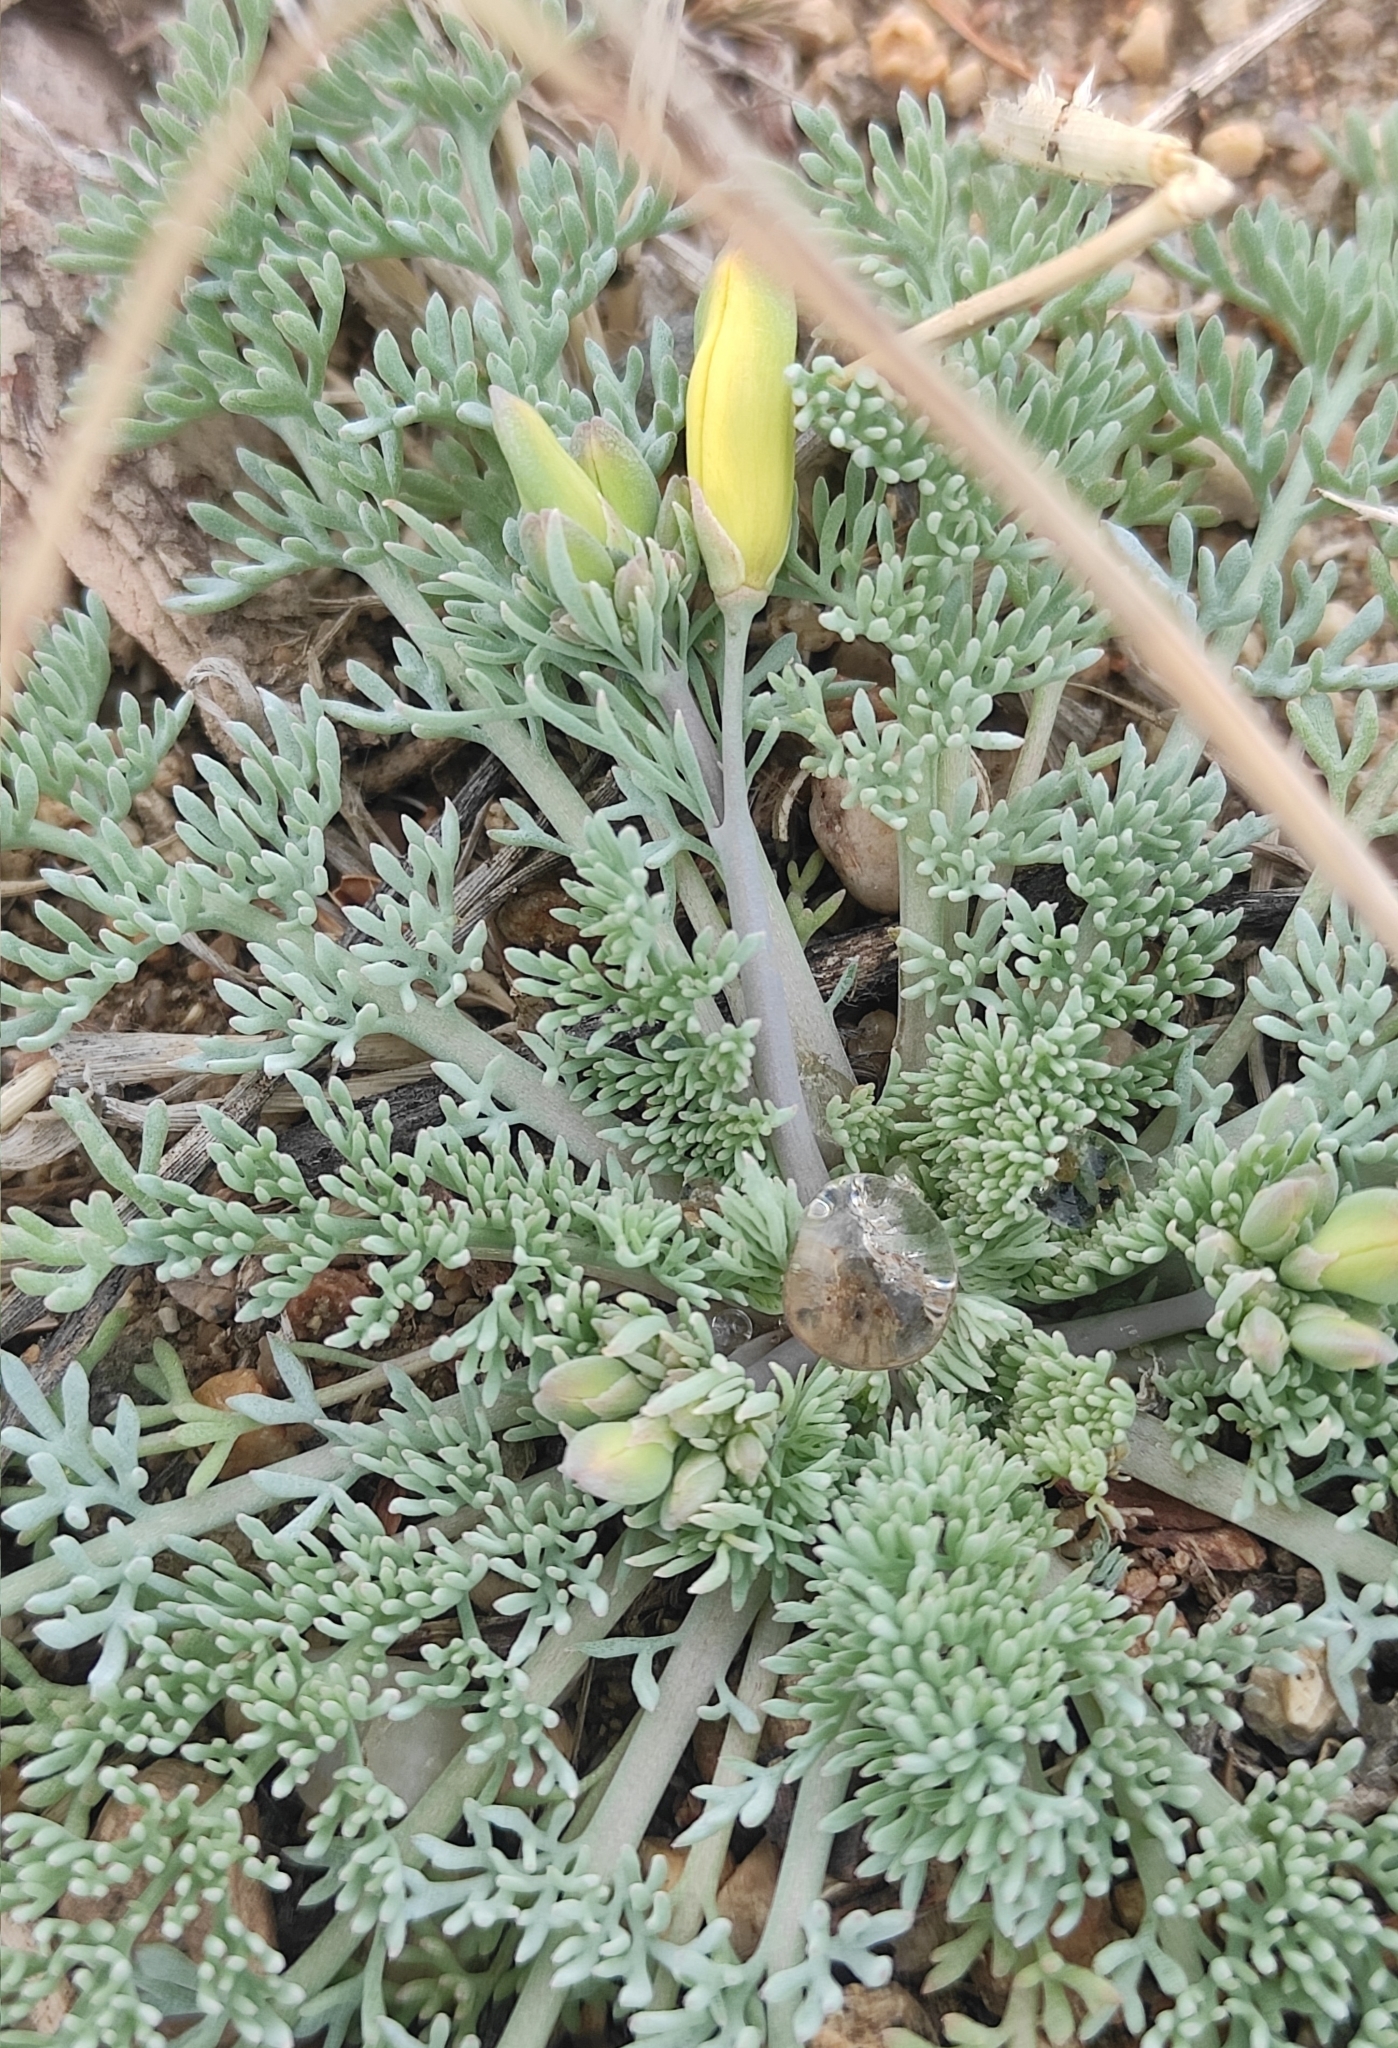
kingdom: Plantae
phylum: Tracheophyta
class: Magnoliopsida
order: Ranunculales
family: Papaveraceae
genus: Hypecoum
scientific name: Hypecoum erectum
